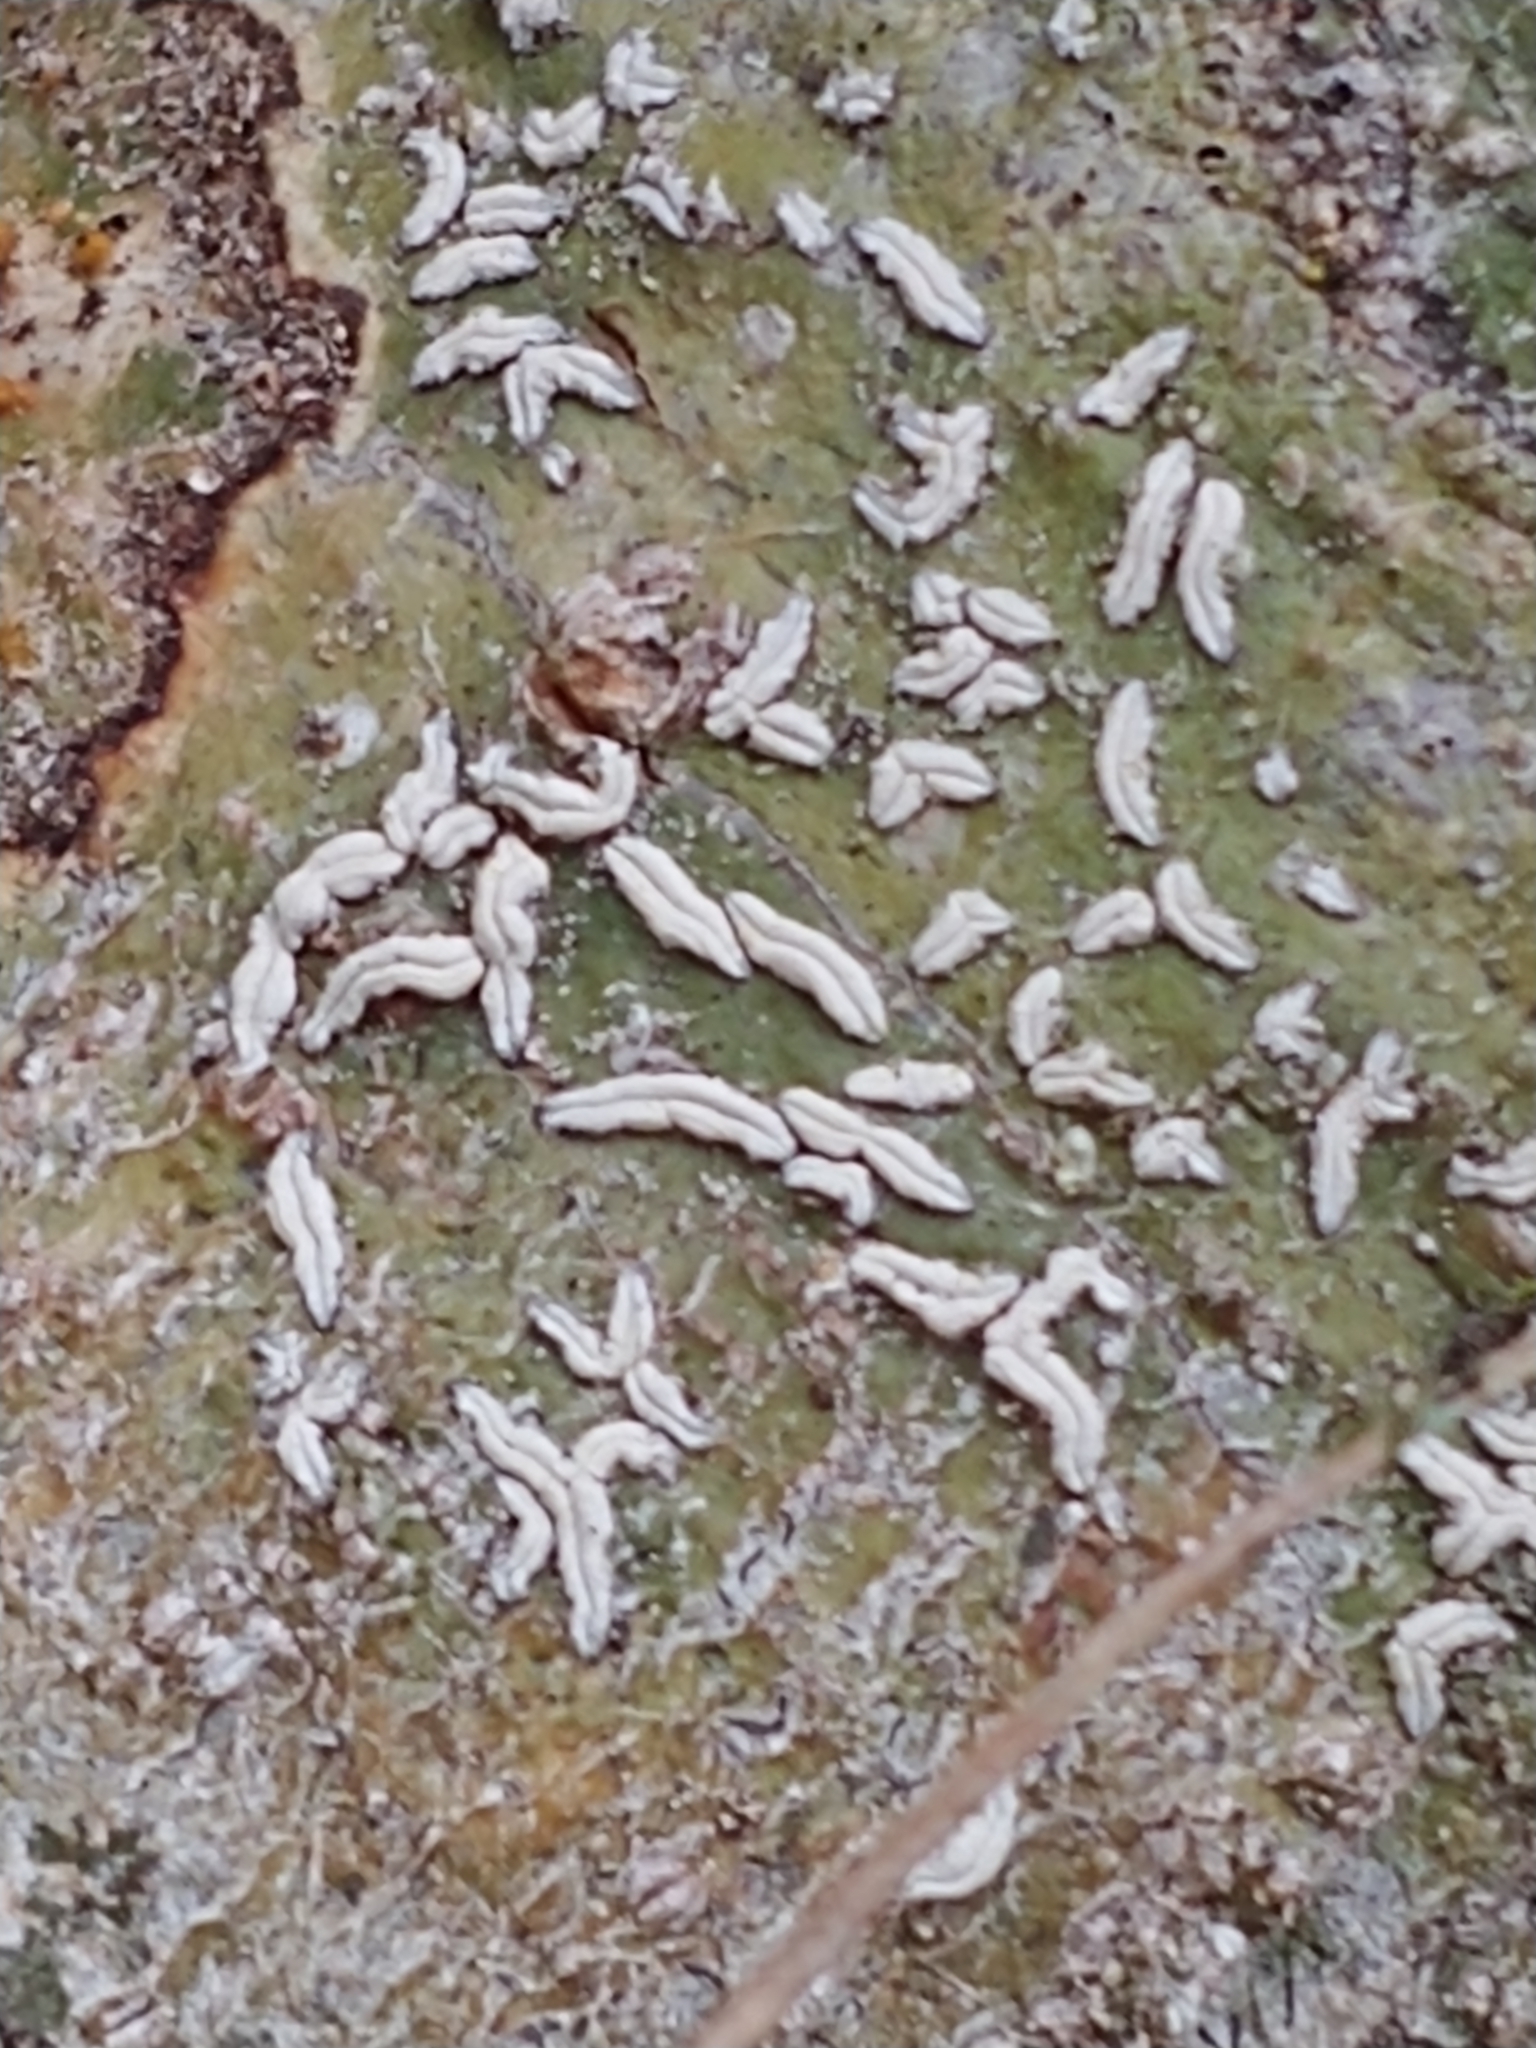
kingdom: Fungi
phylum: Ascomycota
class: Lecanoromycetes
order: Ostropales
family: Graphidaceae
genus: Dyplolabia
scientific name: Dyplolabia afzelii
